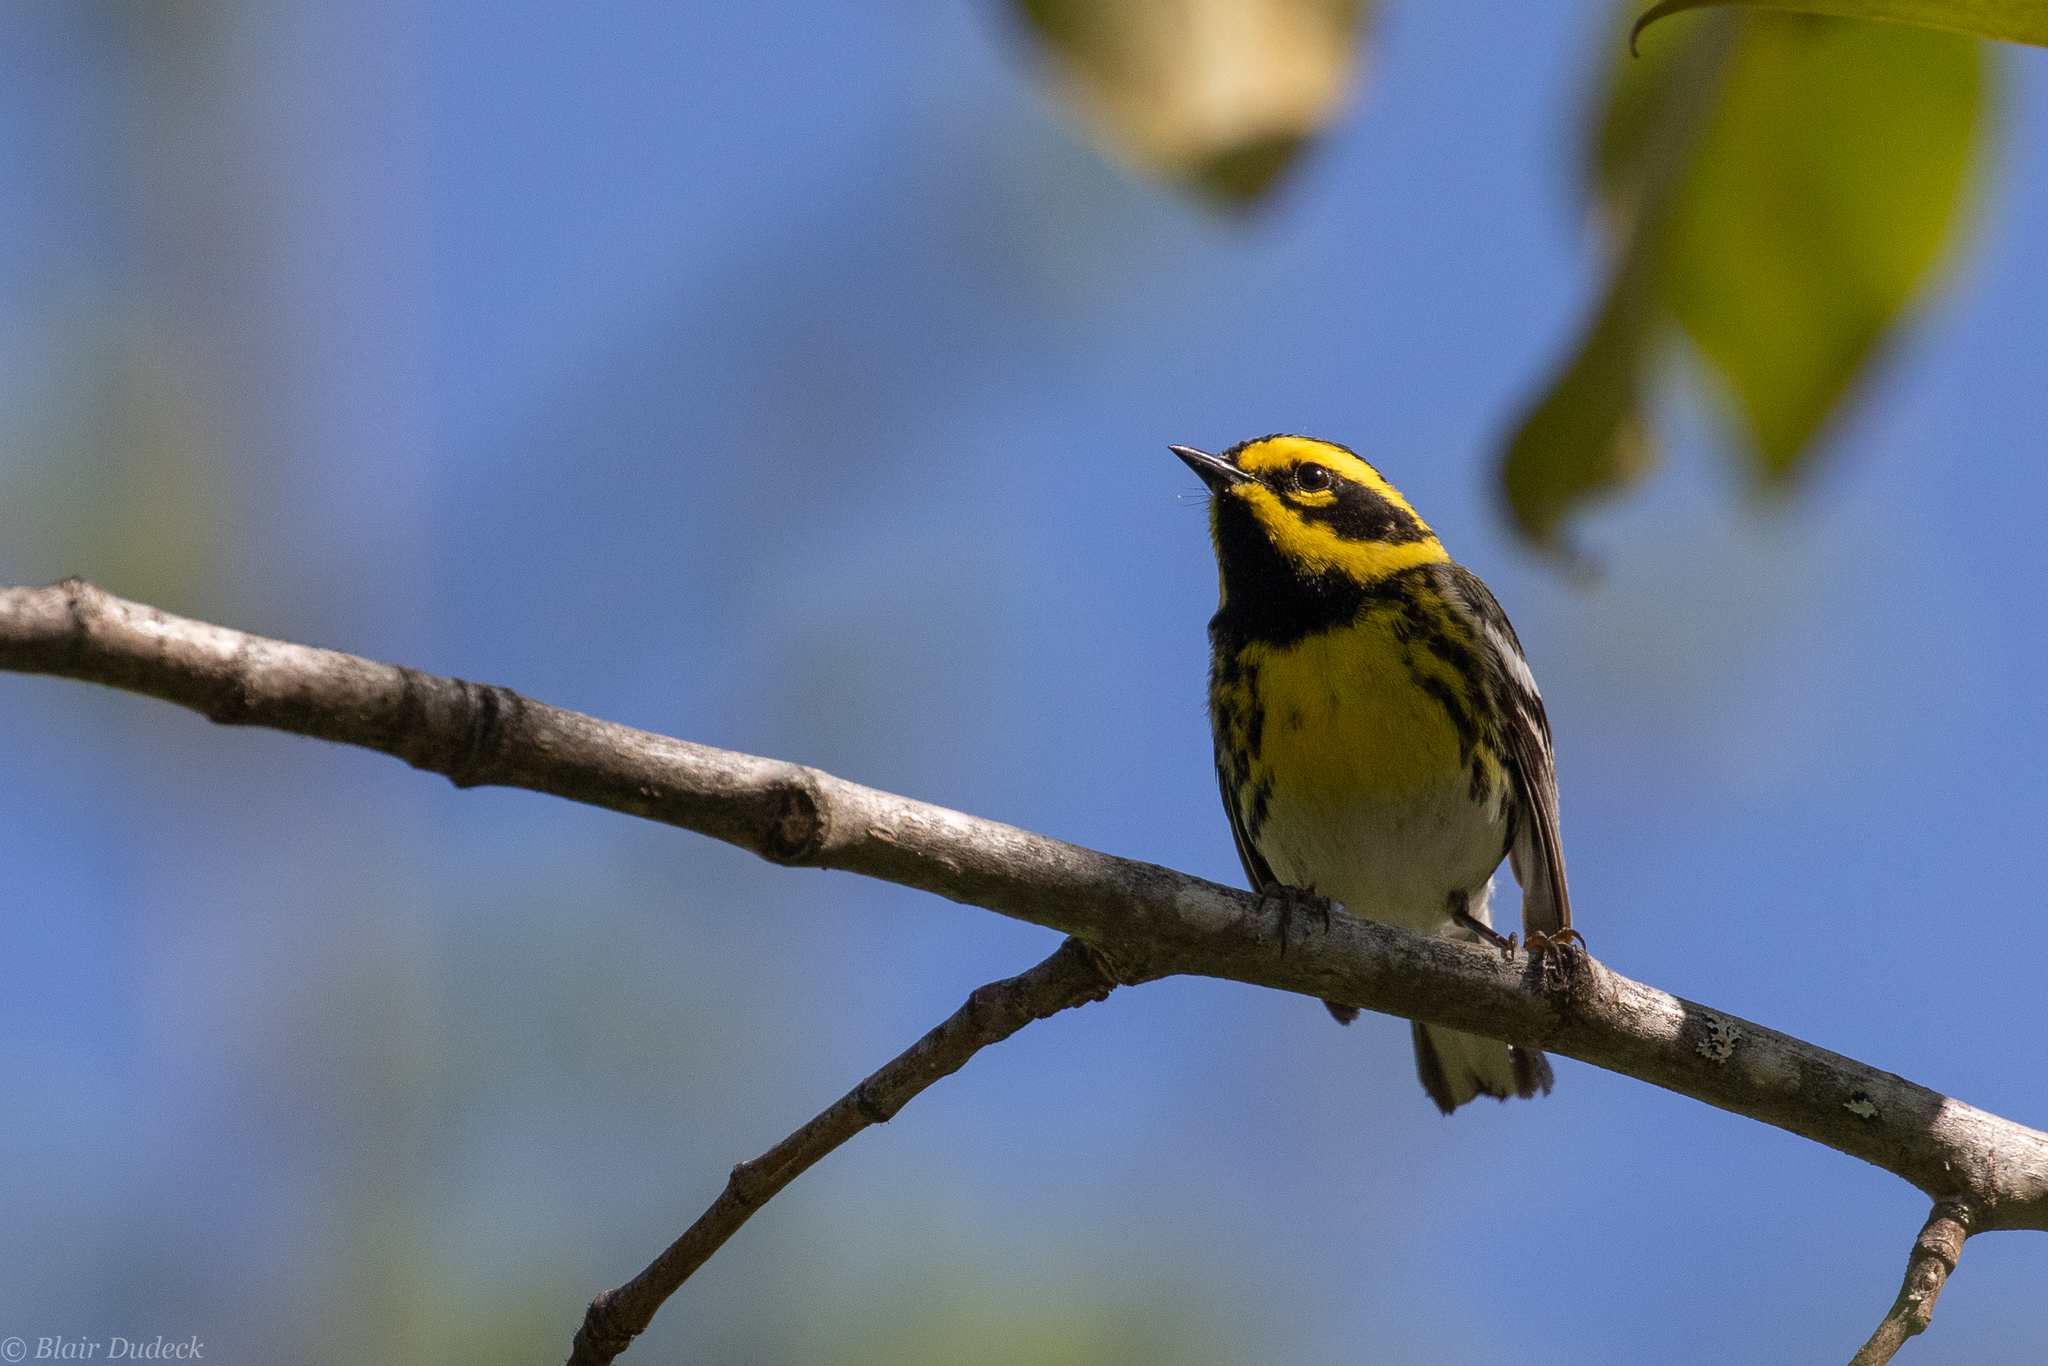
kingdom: Animalia
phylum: Chordata
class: Aves
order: Passeriformes
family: Parulidae
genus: Setophaga
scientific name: Setophaga townsendi
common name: Townsend's warbler
